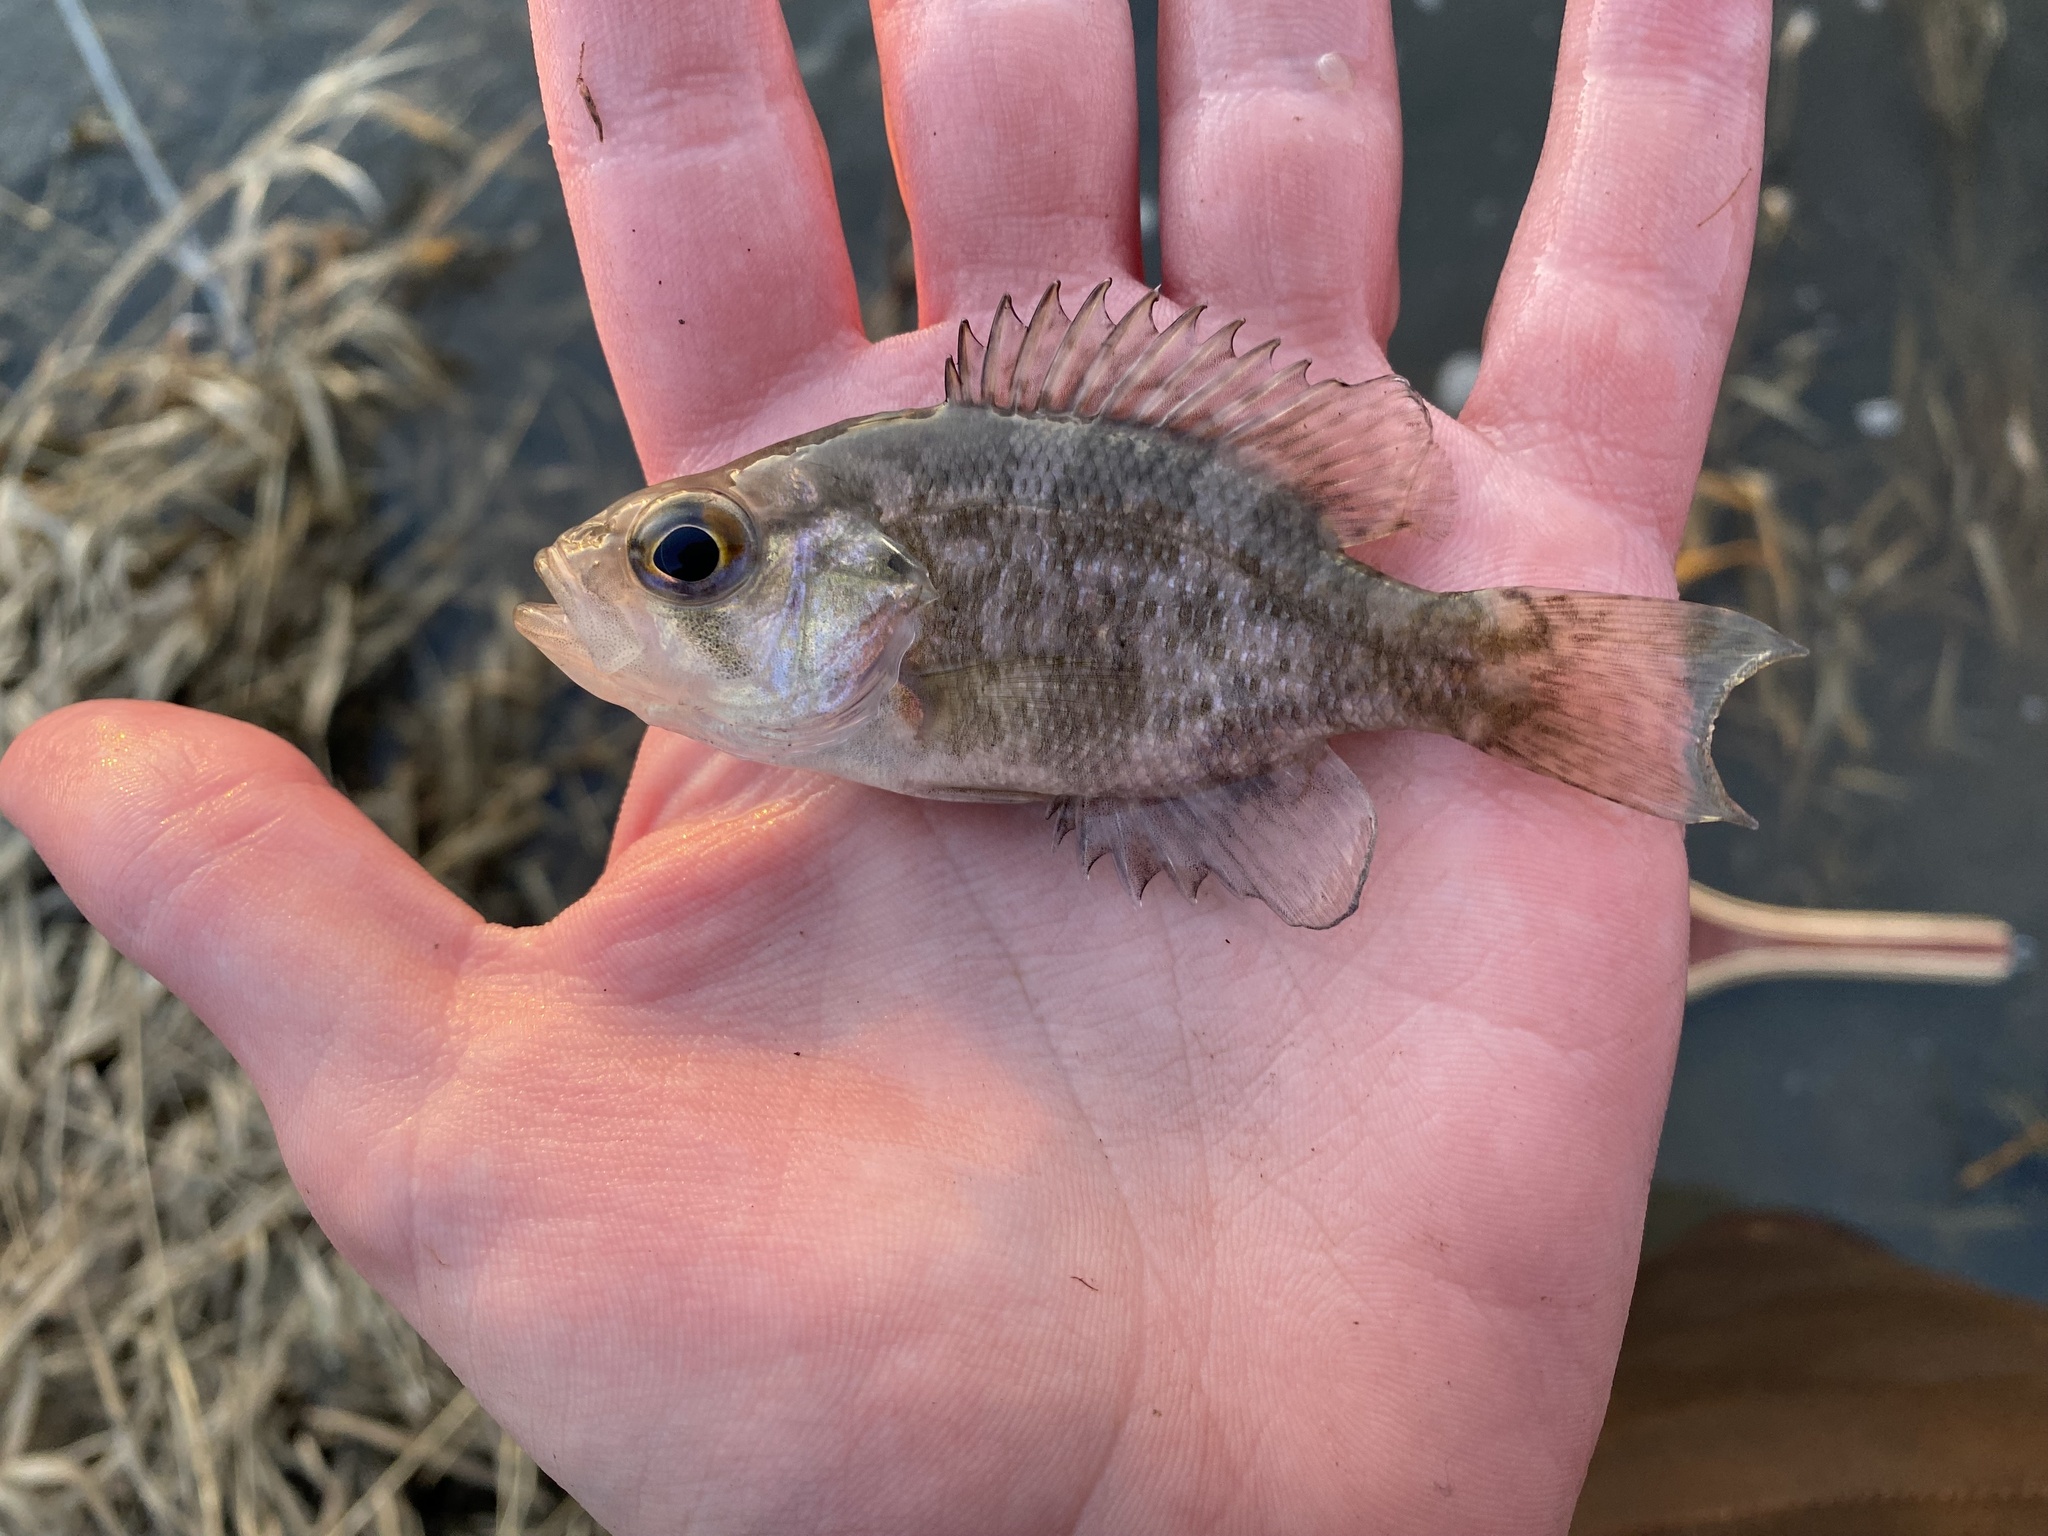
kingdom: Animalia
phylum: Chordata
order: Perciformes
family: Centrarchidae
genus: Ambloplites
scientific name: Ambloplites rupestris
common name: Rock bass
